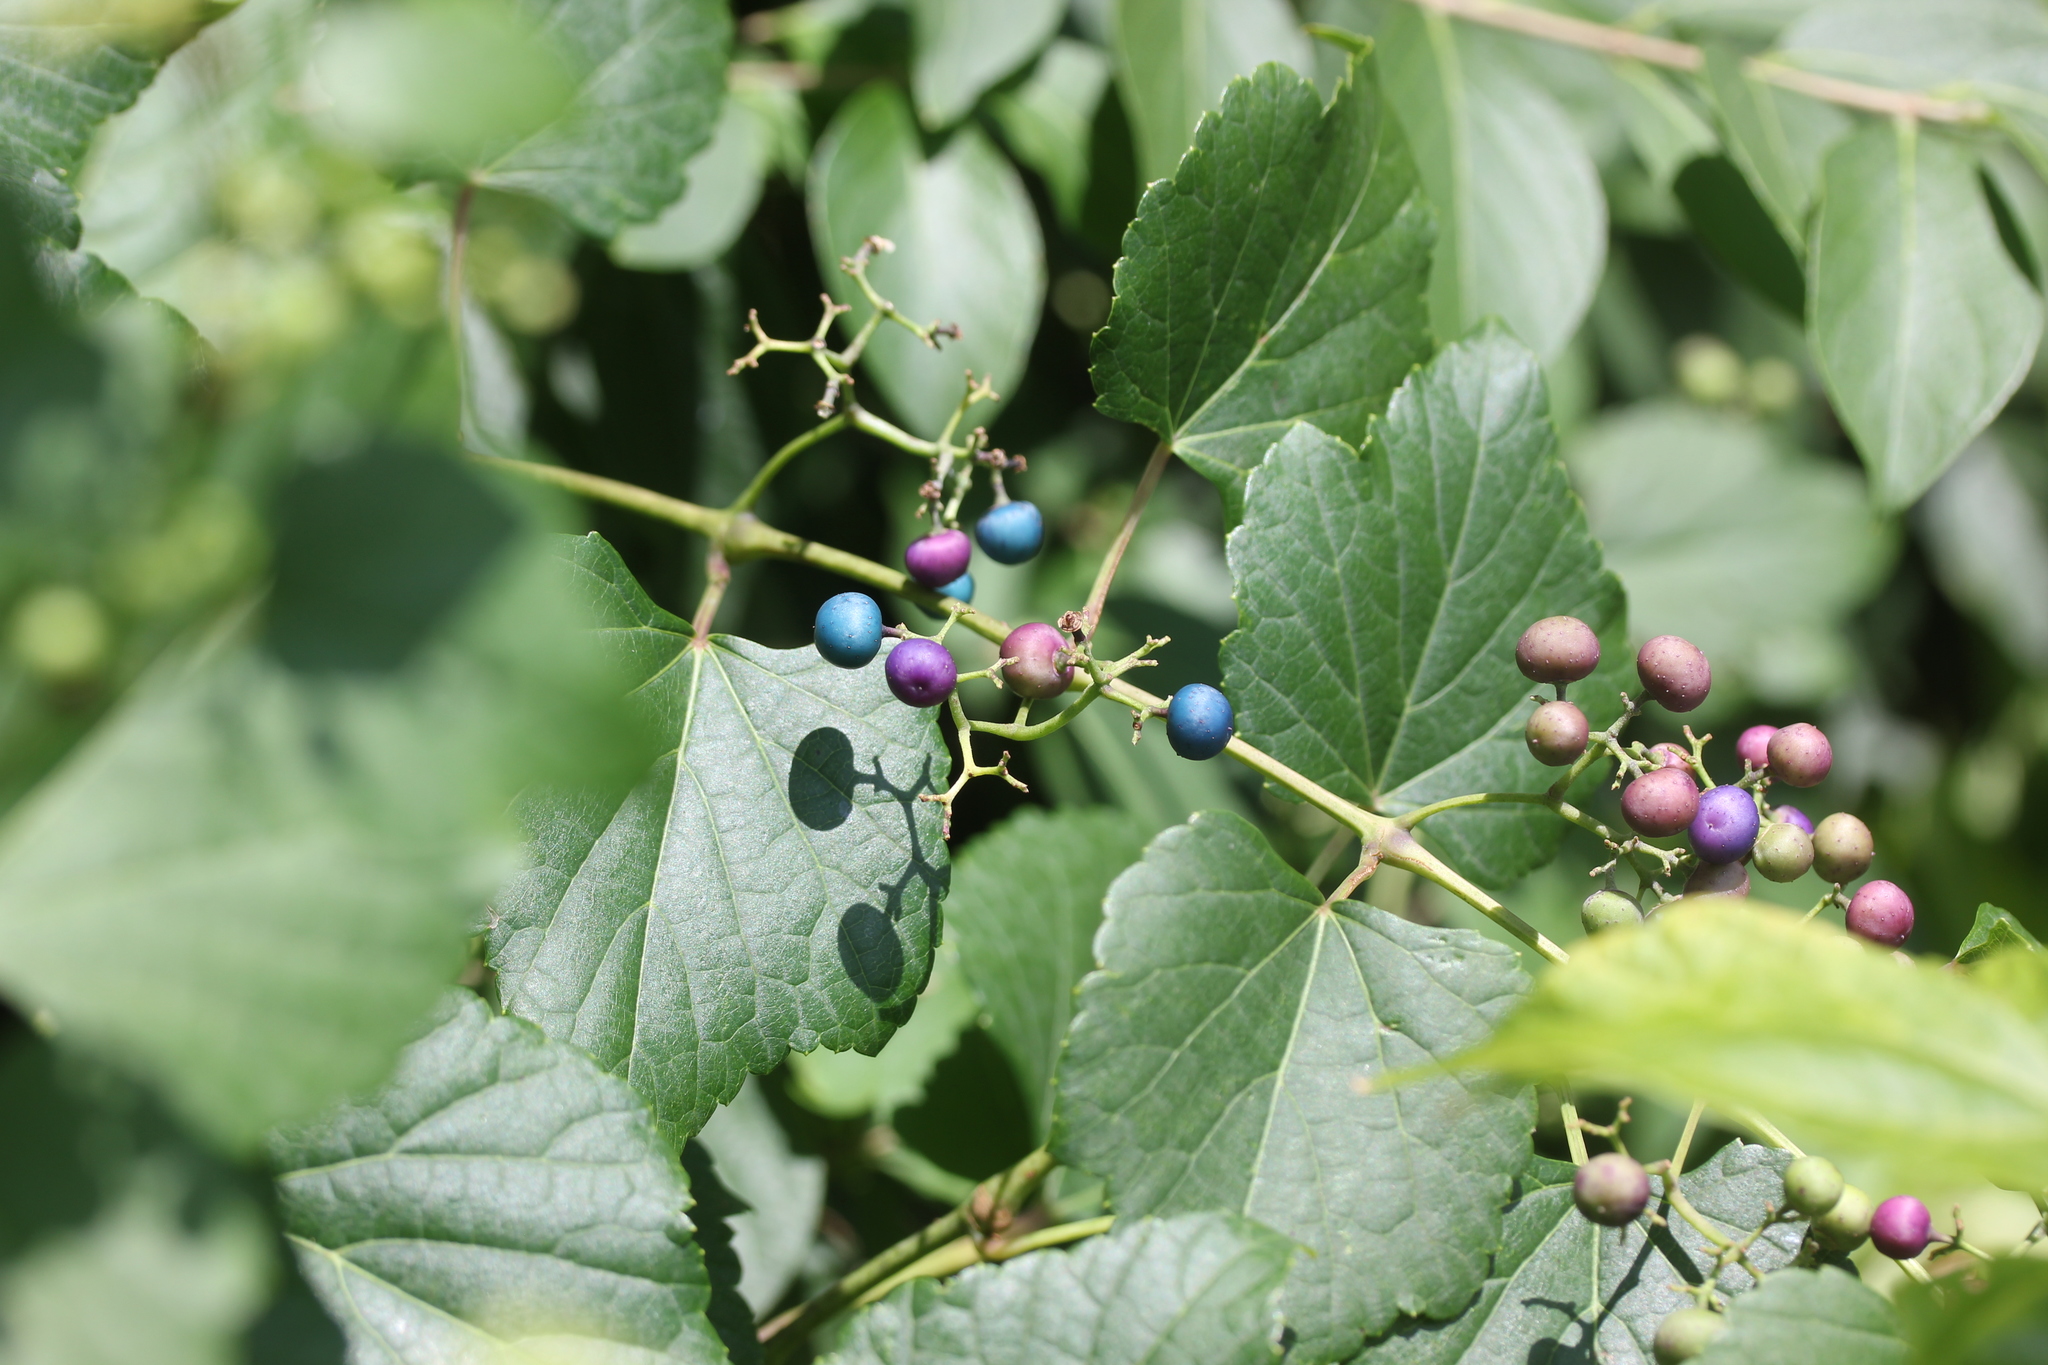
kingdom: Plantae
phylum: Tracheophyta
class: Magnoliopsida
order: Vitales
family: Vitaceae
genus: Ampelopsis
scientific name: Ampelopsis glandulosa
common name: Amur peppervine
